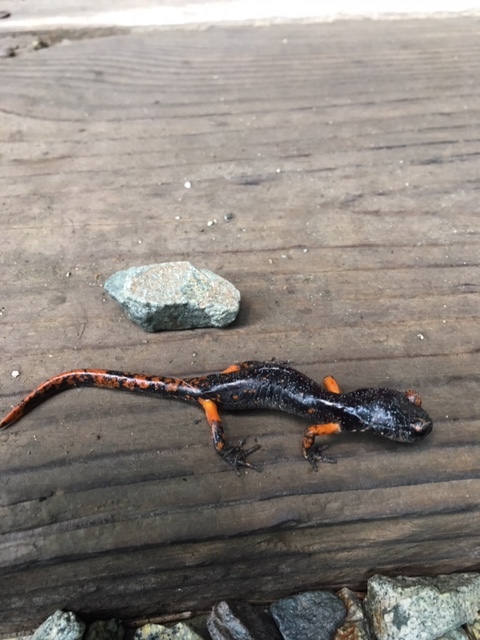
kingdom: Animalia
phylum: Chordata
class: Amphibia
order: Caudata
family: Plethodontidae
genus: Ensatina
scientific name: Ensatina eschscholtzii
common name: Ensatina
